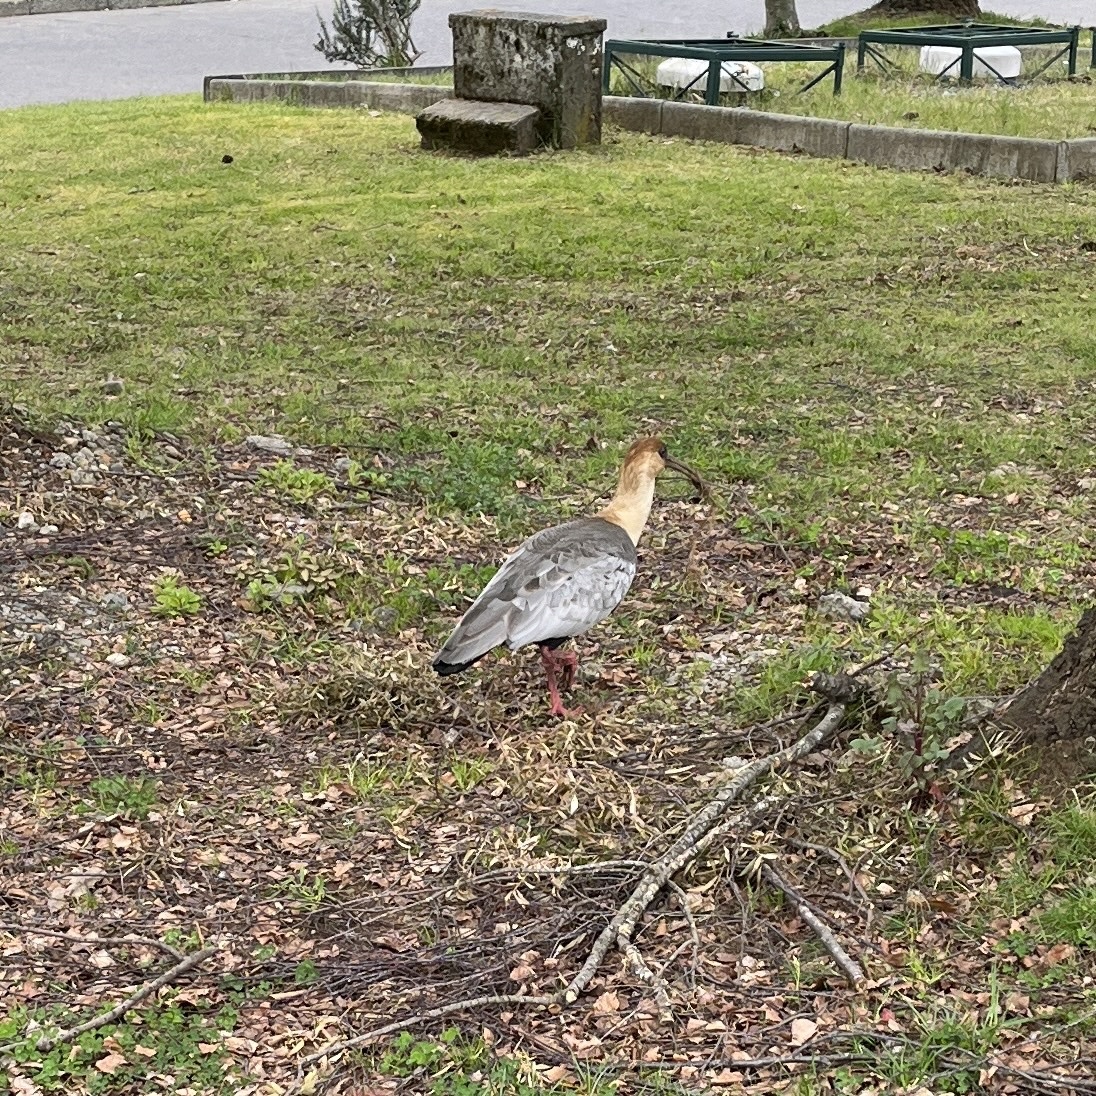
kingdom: Animalia
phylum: Chordata
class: Aves
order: Pelecaniformes
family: Threskiornithidae
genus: Theristicus
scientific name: Theristicus melanopis
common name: Black-faced ibis
